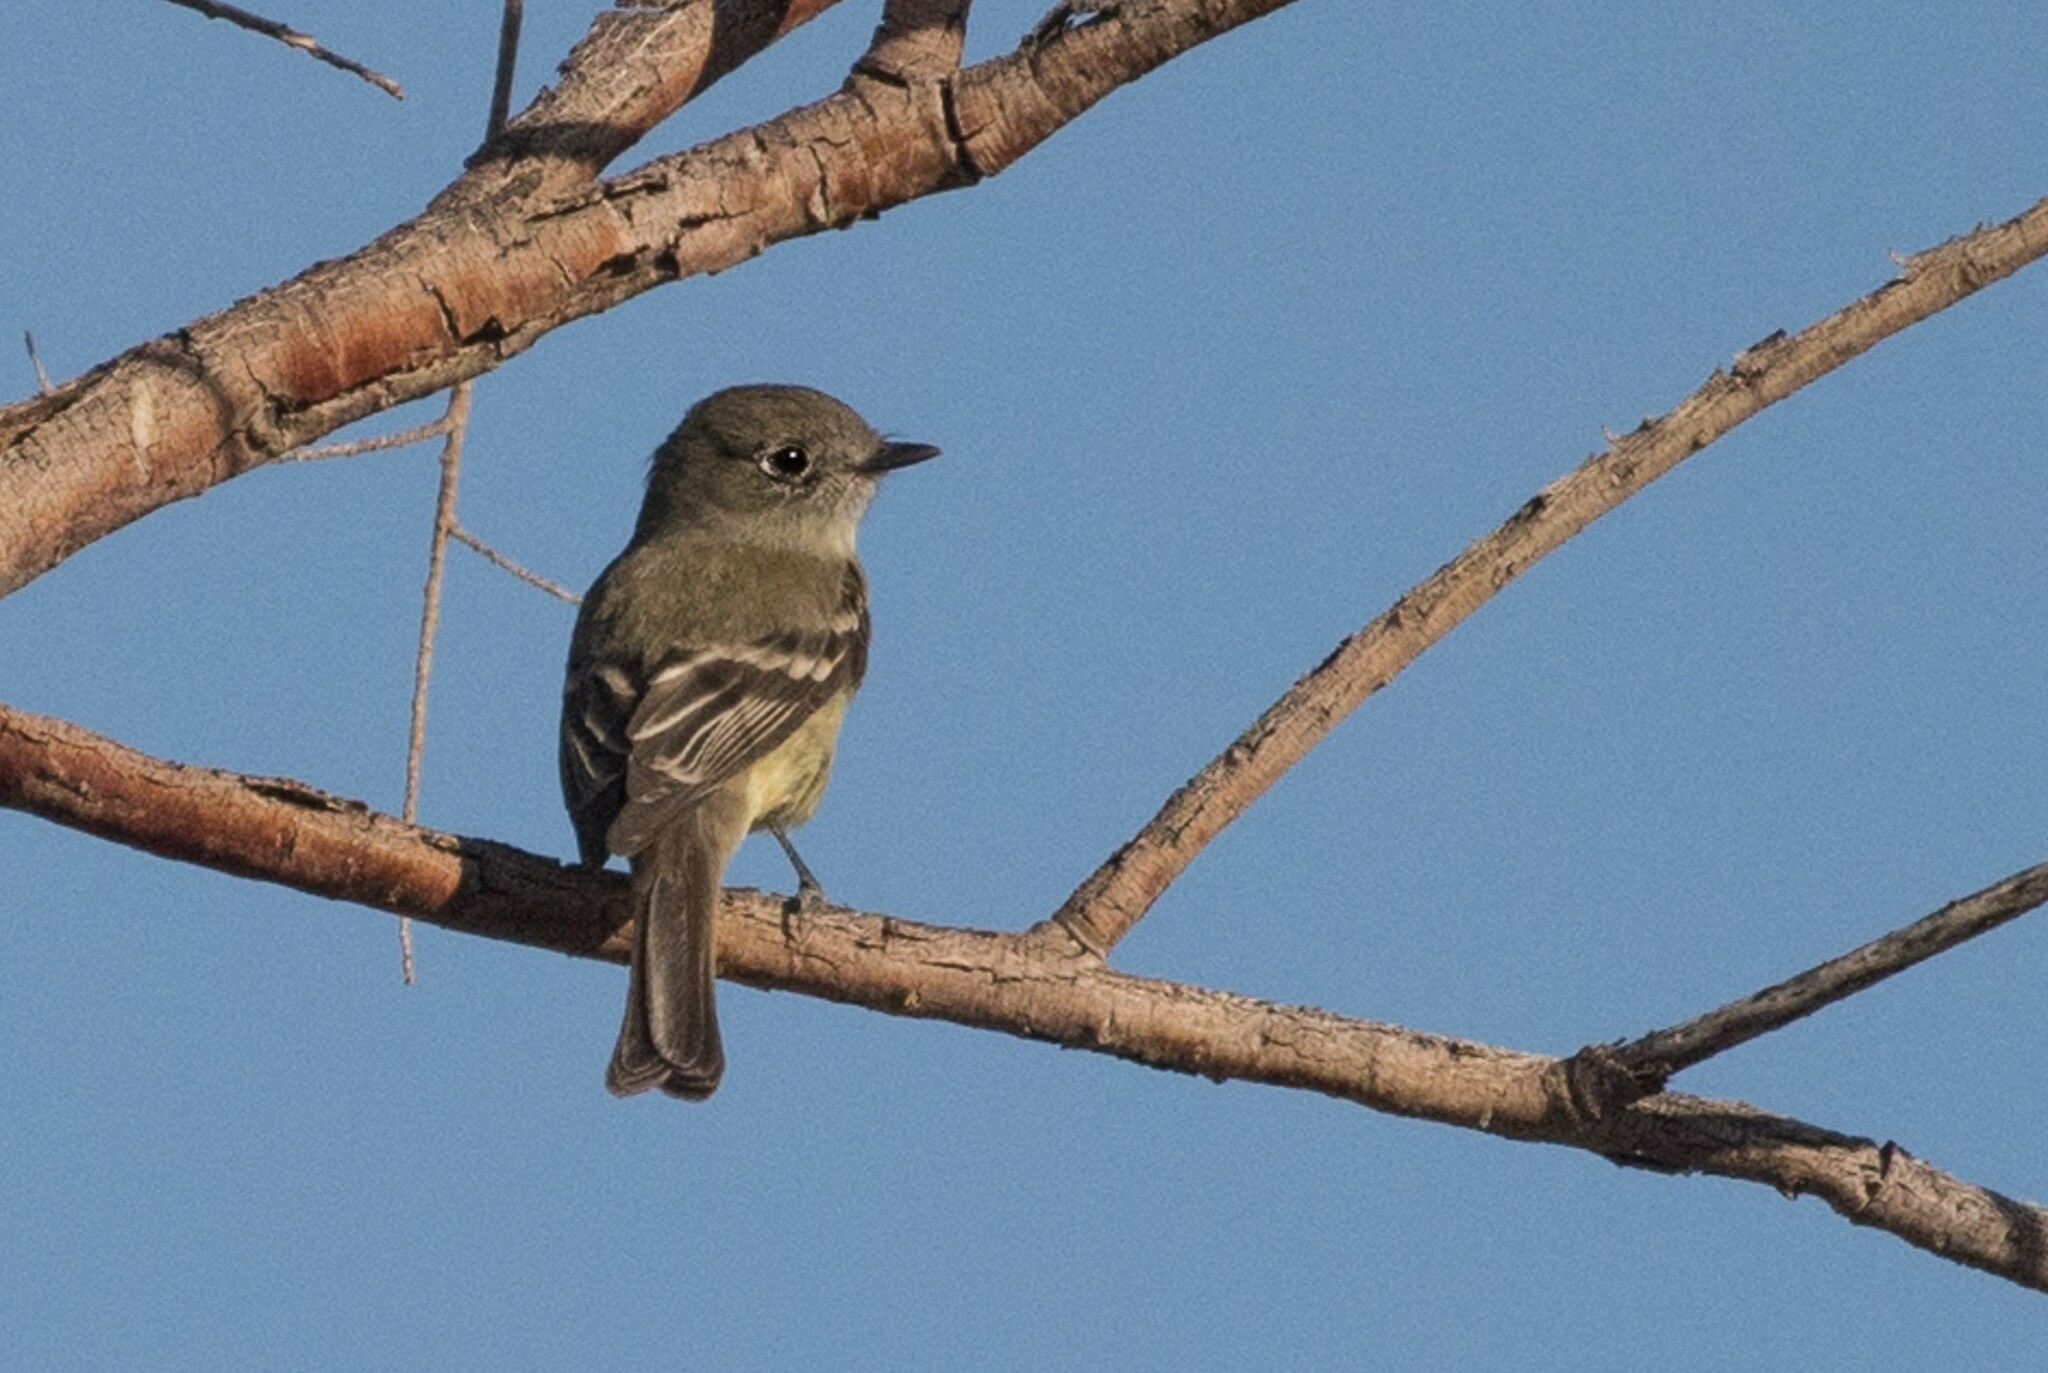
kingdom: Animalia
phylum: Chordata
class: Aves
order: Passeriformes
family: Tyrannidae
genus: Empidonax
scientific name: Empidonax oberholseri
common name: Dusky flycatcher
